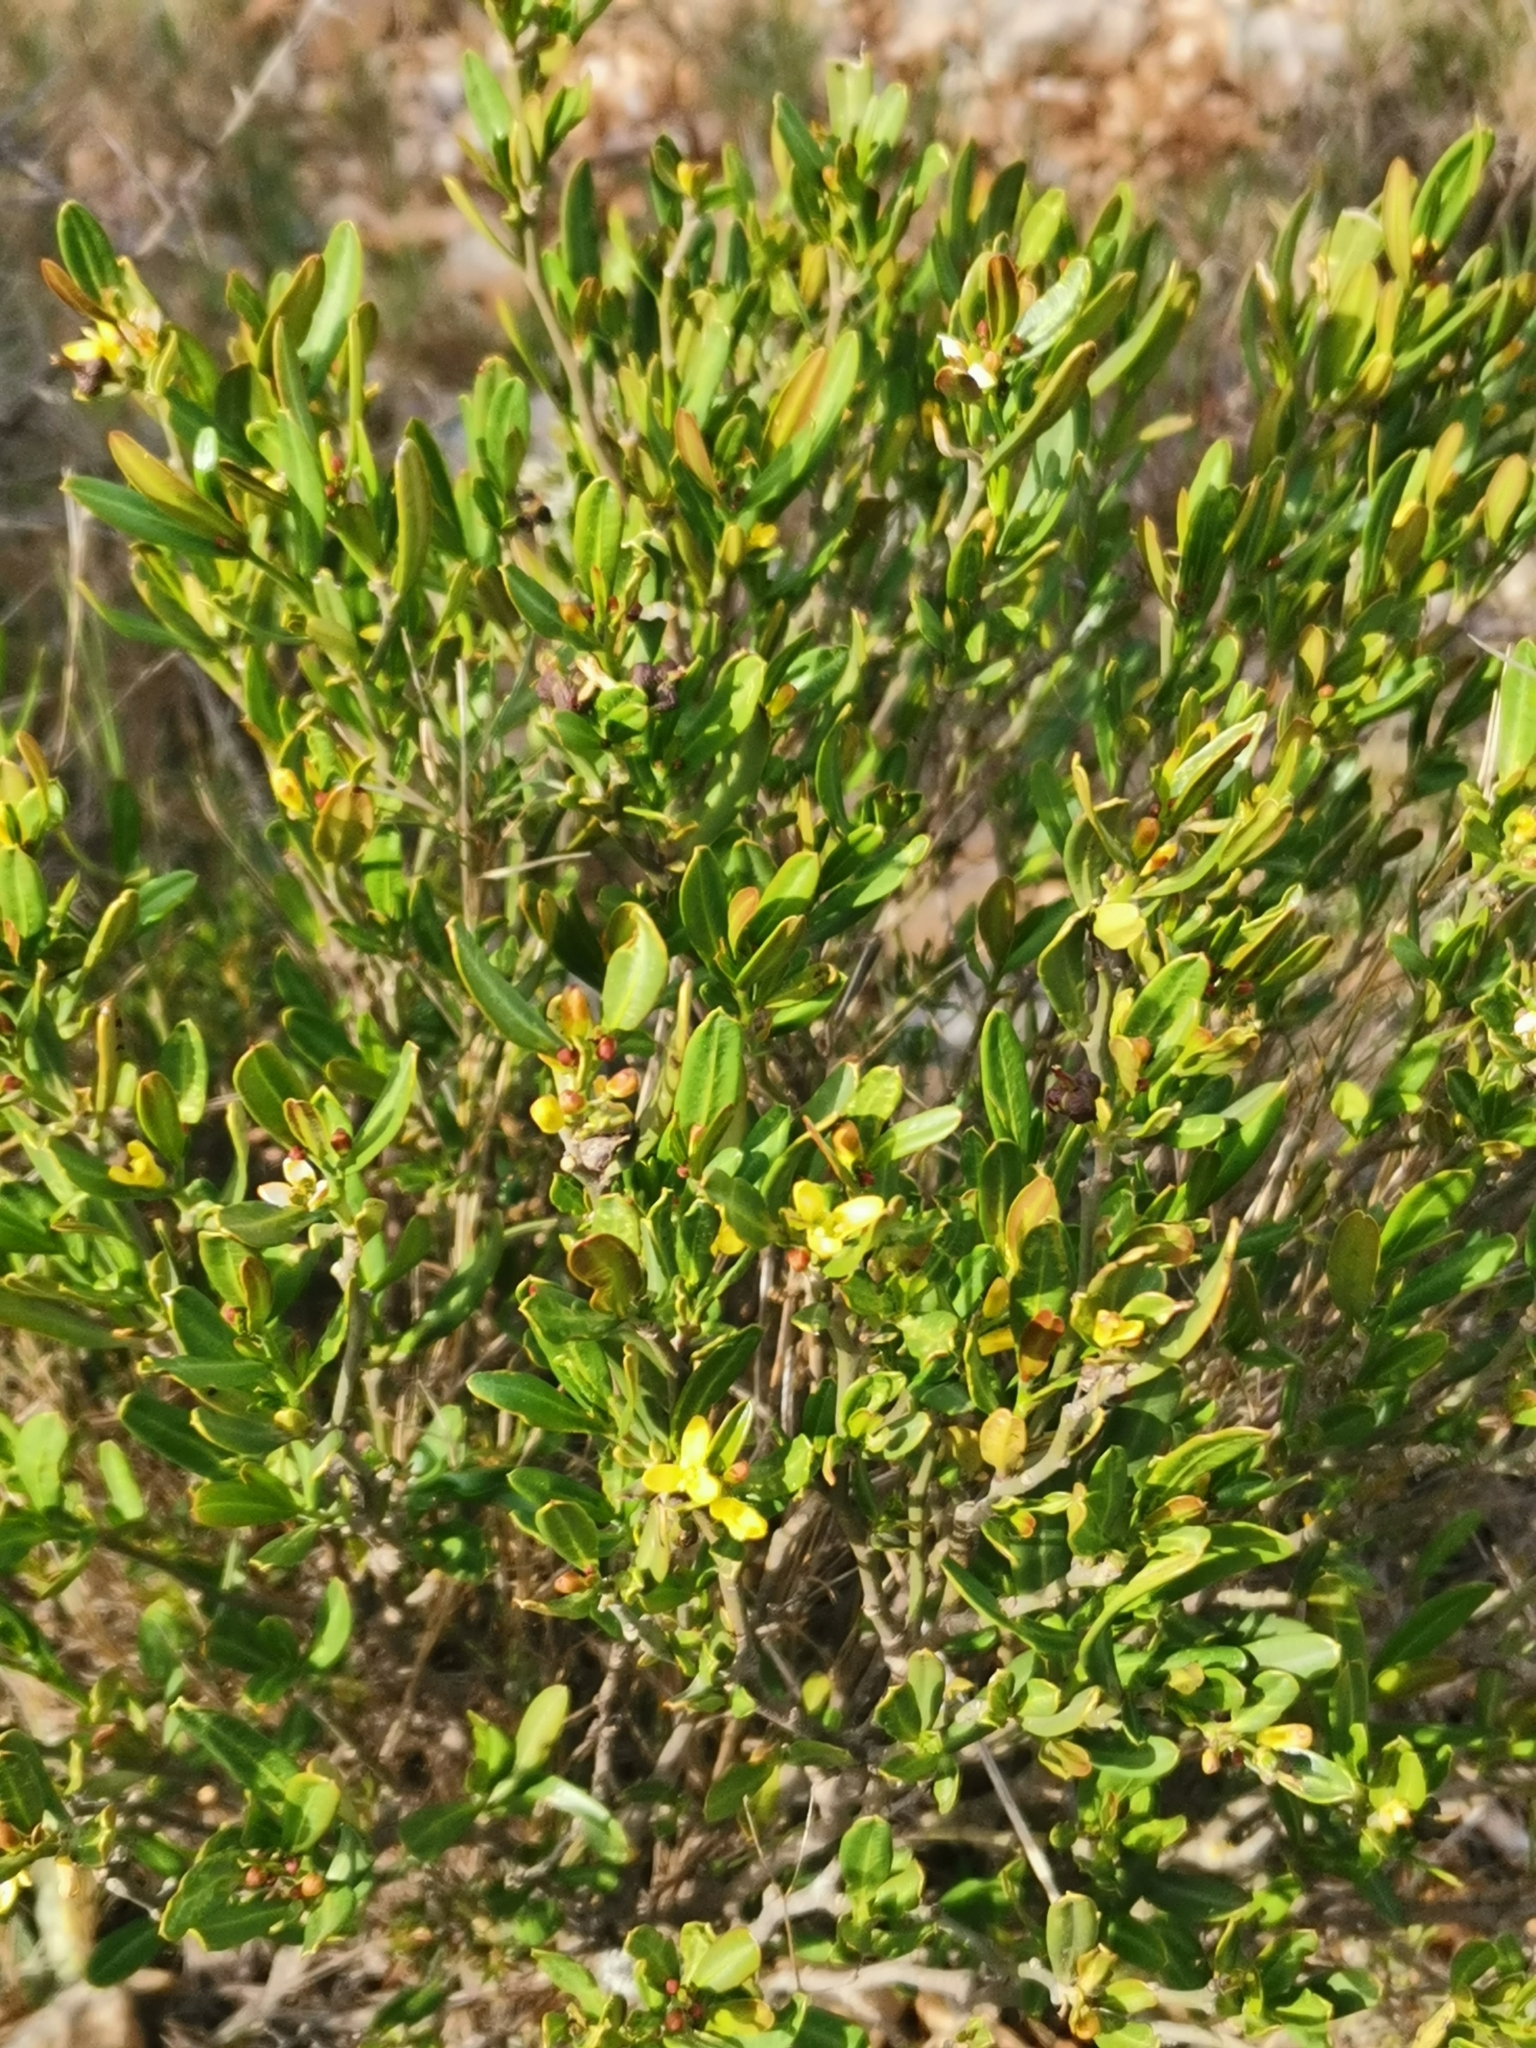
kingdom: Plantae
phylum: Tracheophyta
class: Magnoliopsida
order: Sapindales
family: Rutaceae
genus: Cneorum
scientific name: Cneorum tricoccon
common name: Spurge olive
